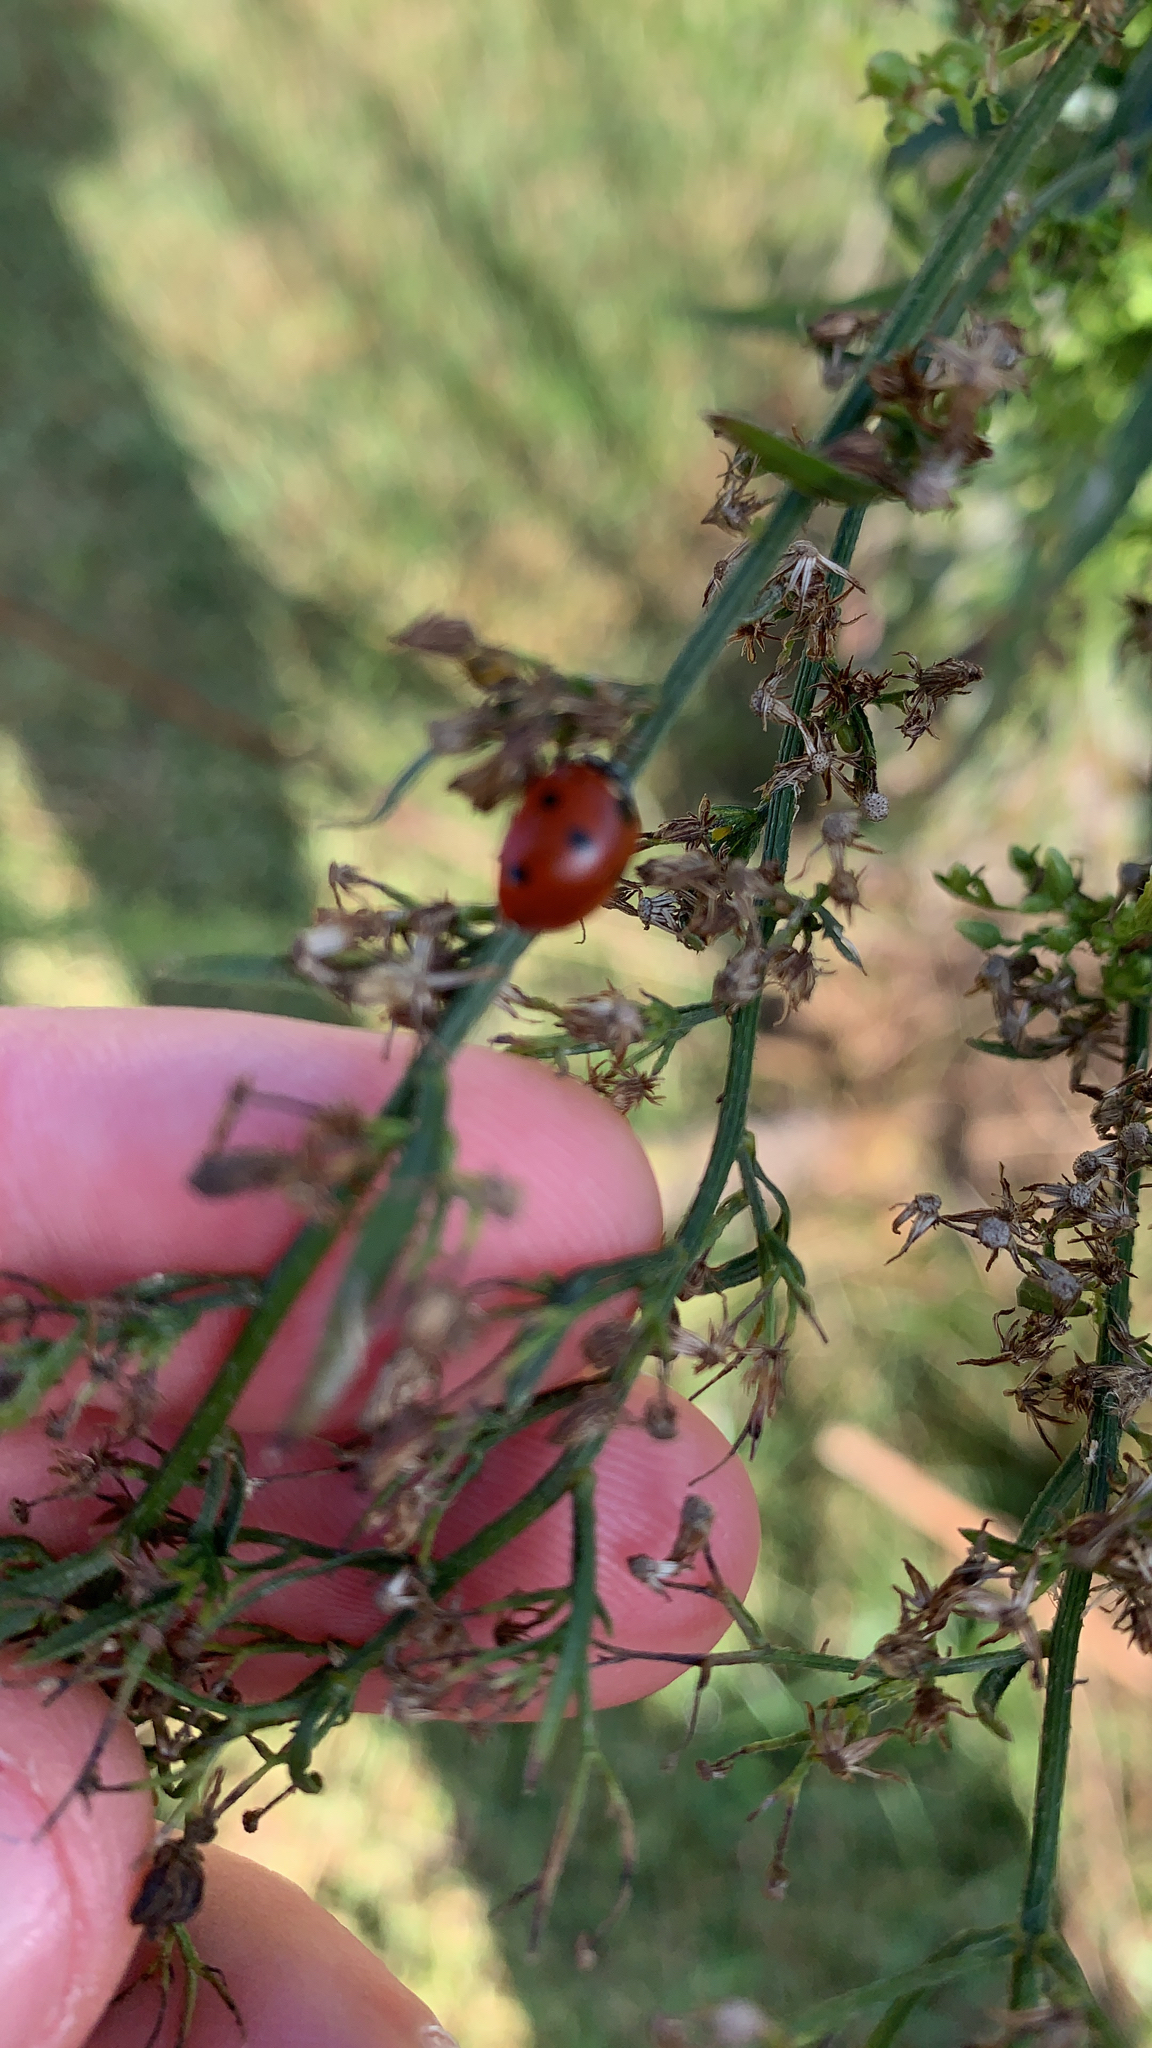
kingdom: Animalia
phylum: Arthropoda
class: Insecta
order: Coleoptera
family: Coccinellidae
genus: Coccinella
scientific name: Coccinella septempunctata
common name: Sevenspotted lady beetle
